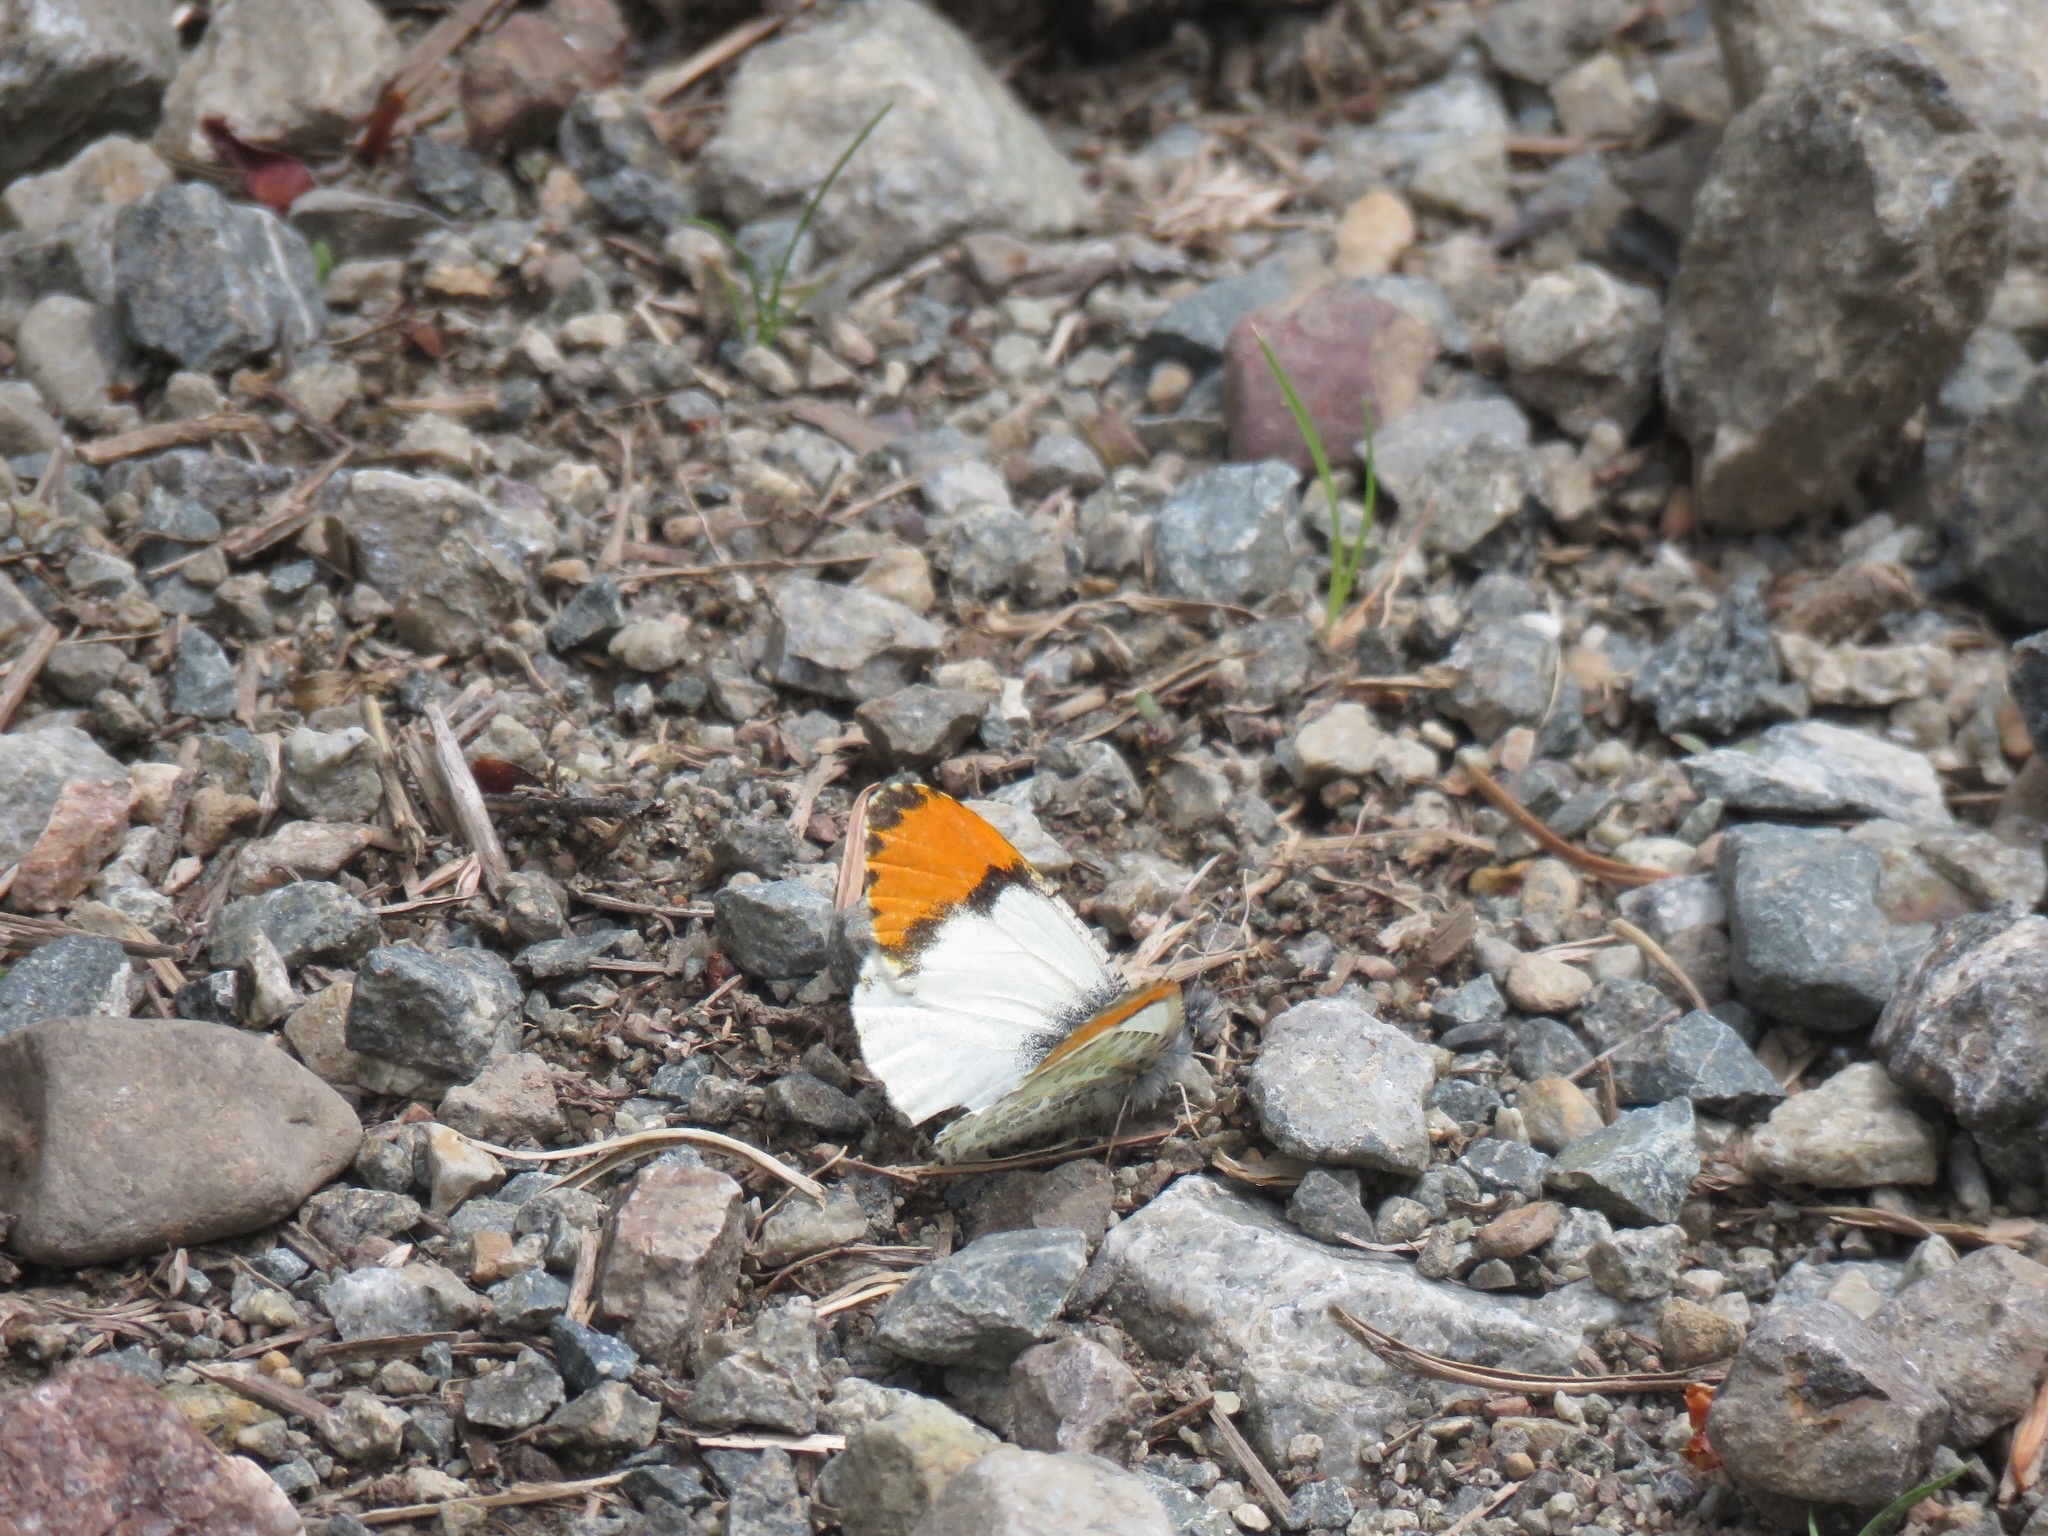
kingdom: Animalia
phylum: Arthropoda
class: Insecta
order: Lepidoptera
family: Pieridae
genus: Anthocharis
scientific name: Anthocharis julia
